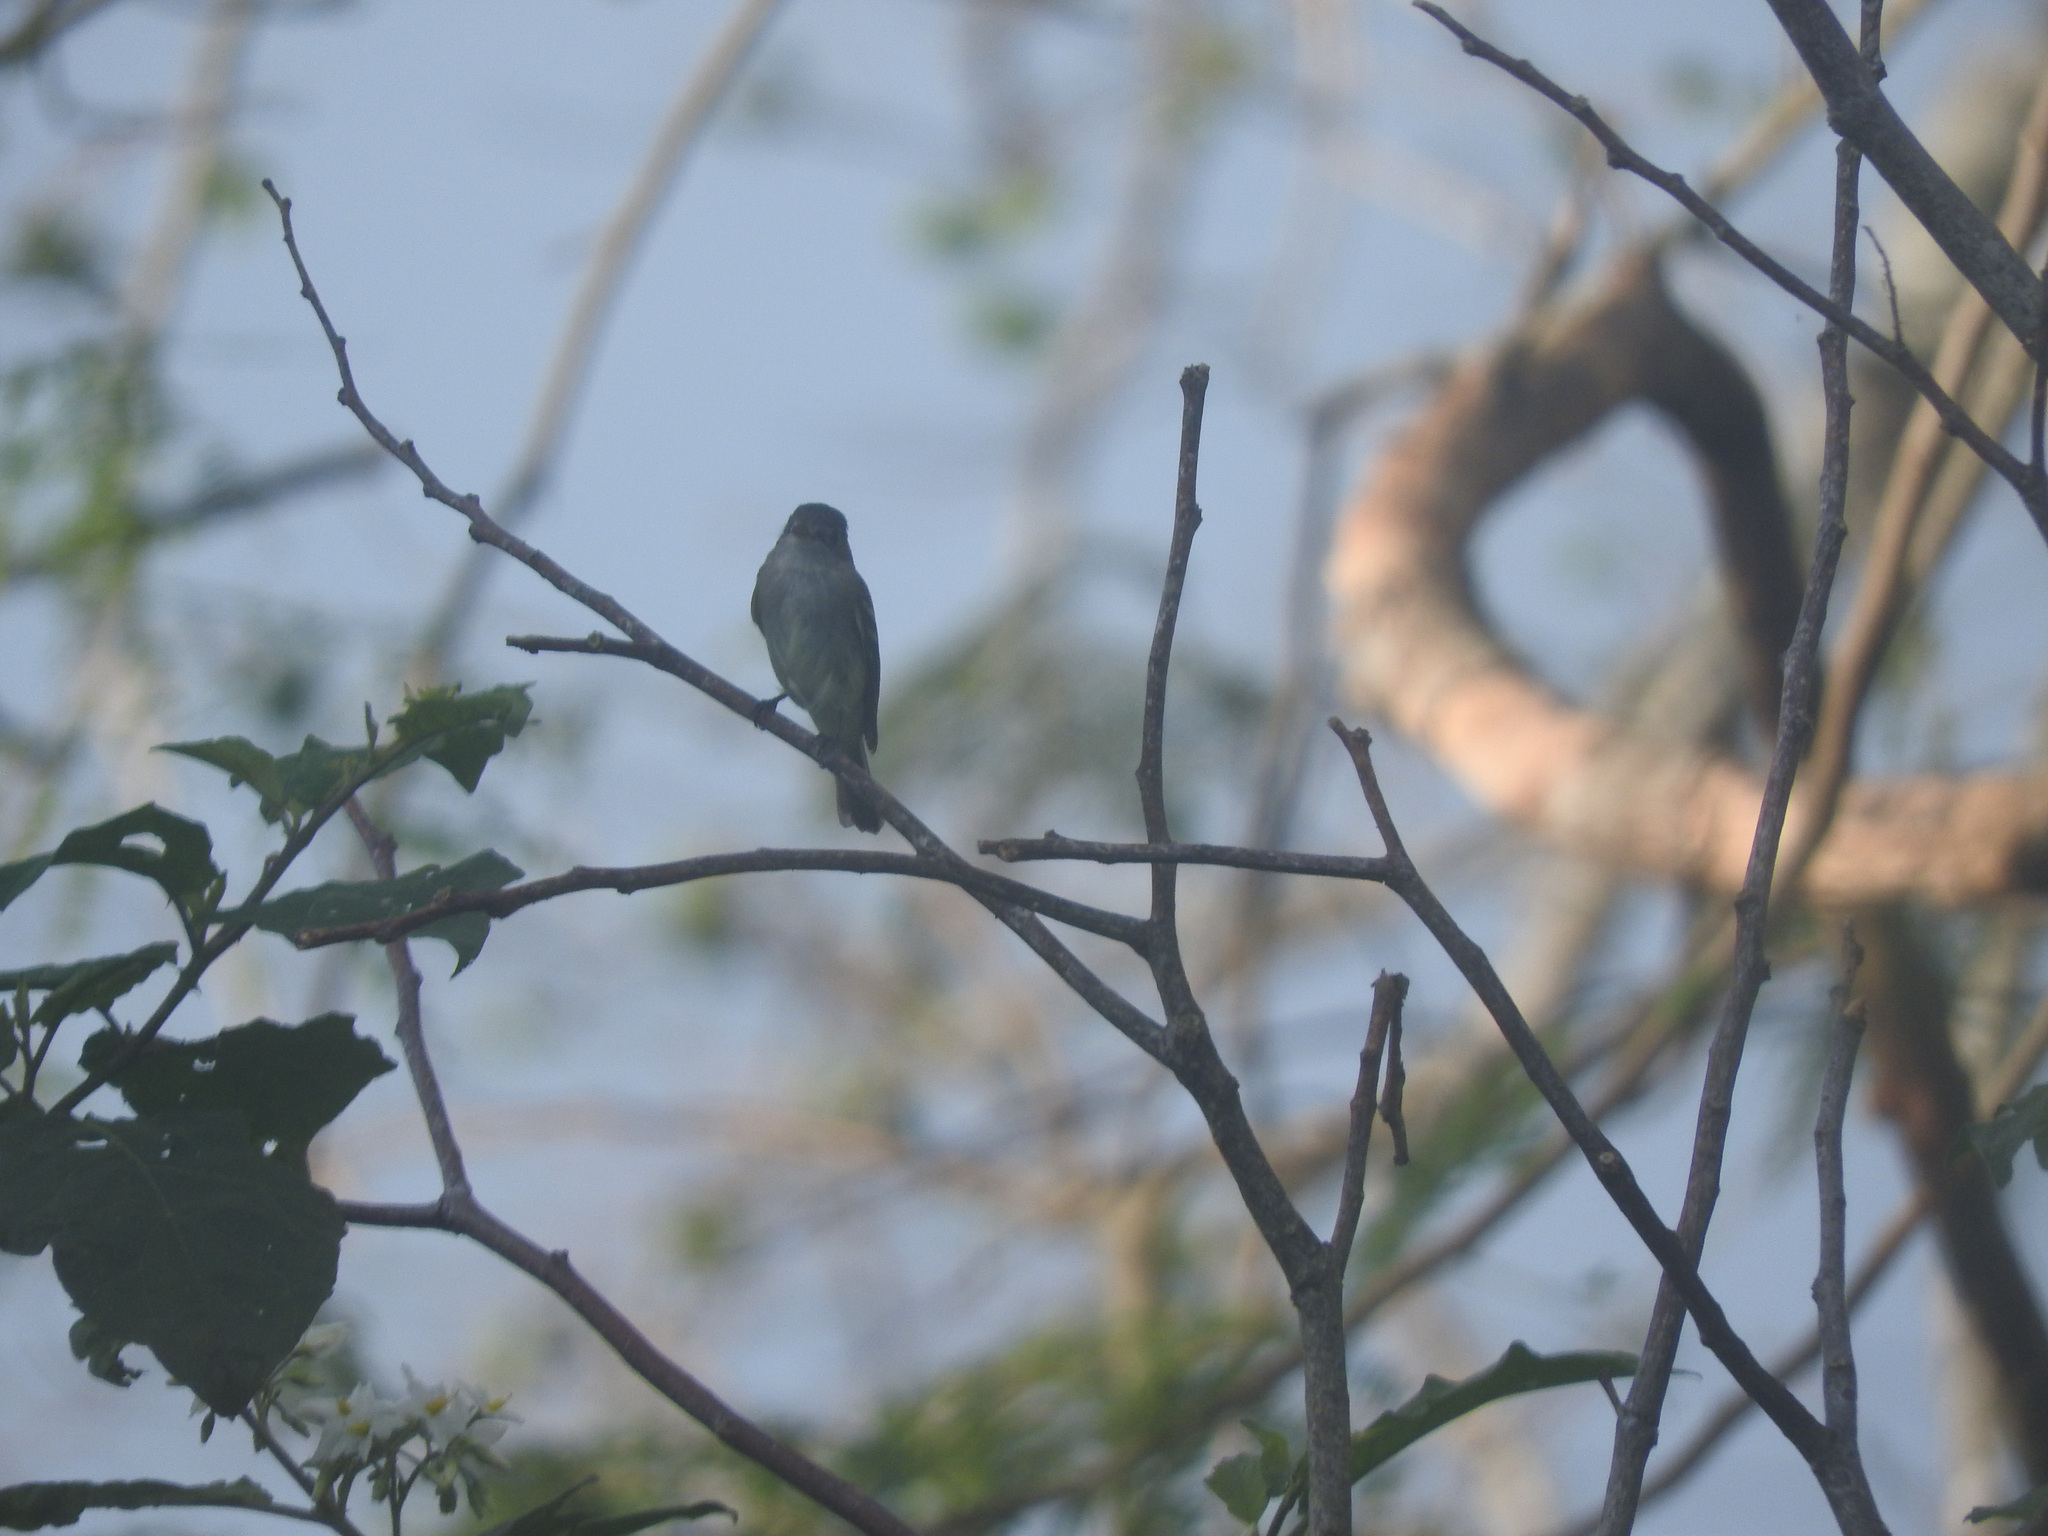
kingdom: Animalia
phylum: Chordata
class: Aves
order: Passeriformes
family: Tyrannidae
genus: Empidonax
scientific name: Empidonax minimus
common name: Least flycatcher
